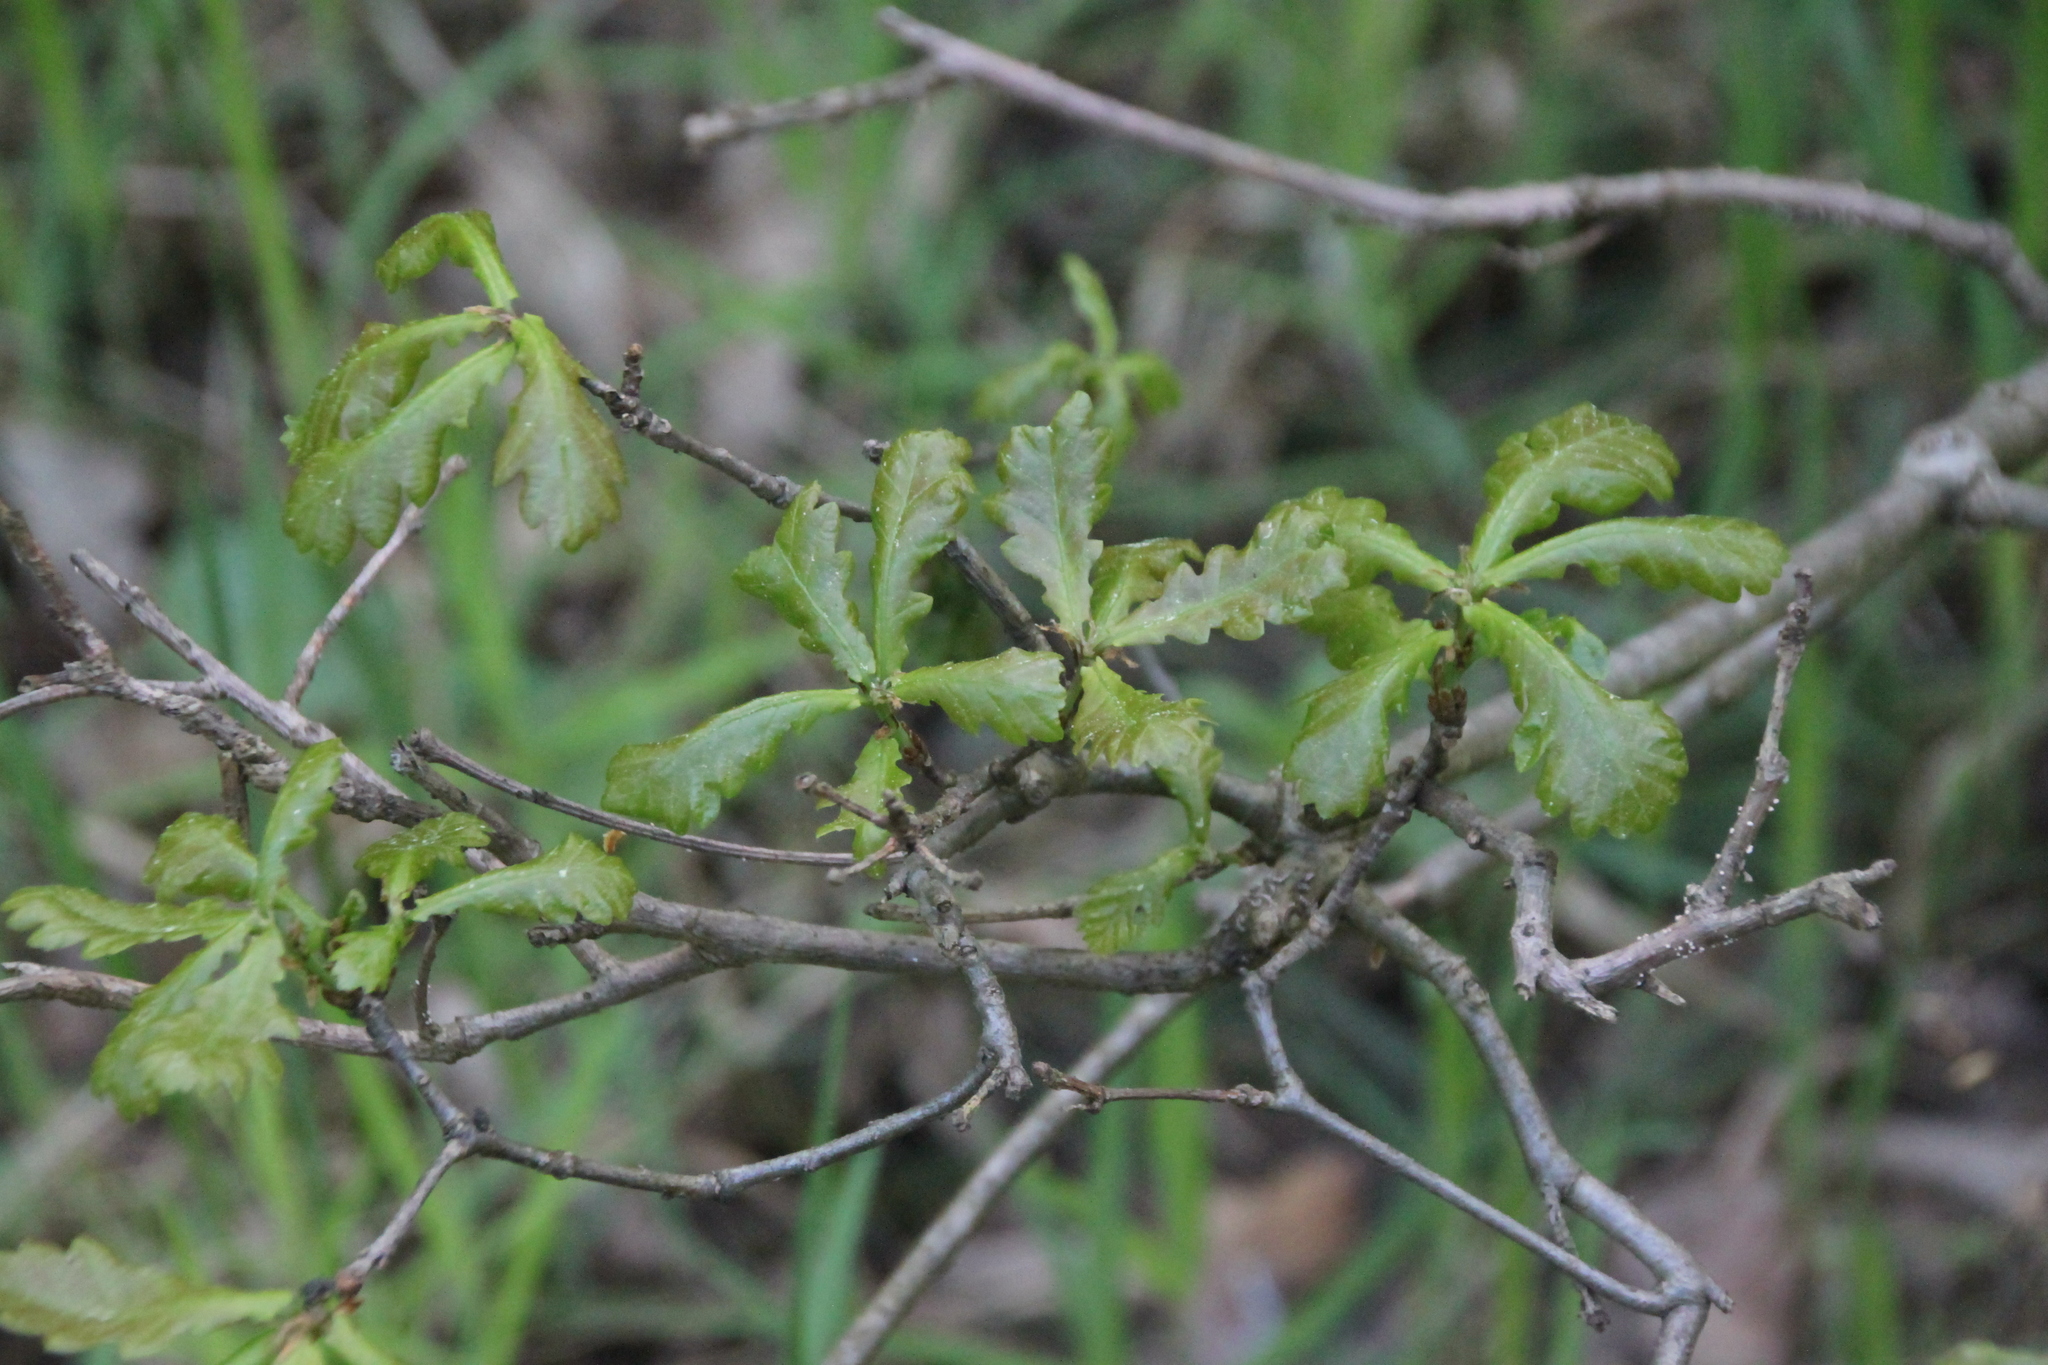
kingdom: Plantae
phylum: Tracheophyta
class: Magnoliopsida
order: Fagales
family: Fagaceae
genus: Quercus
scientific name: Quercus robur
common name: Pedunculate oak
